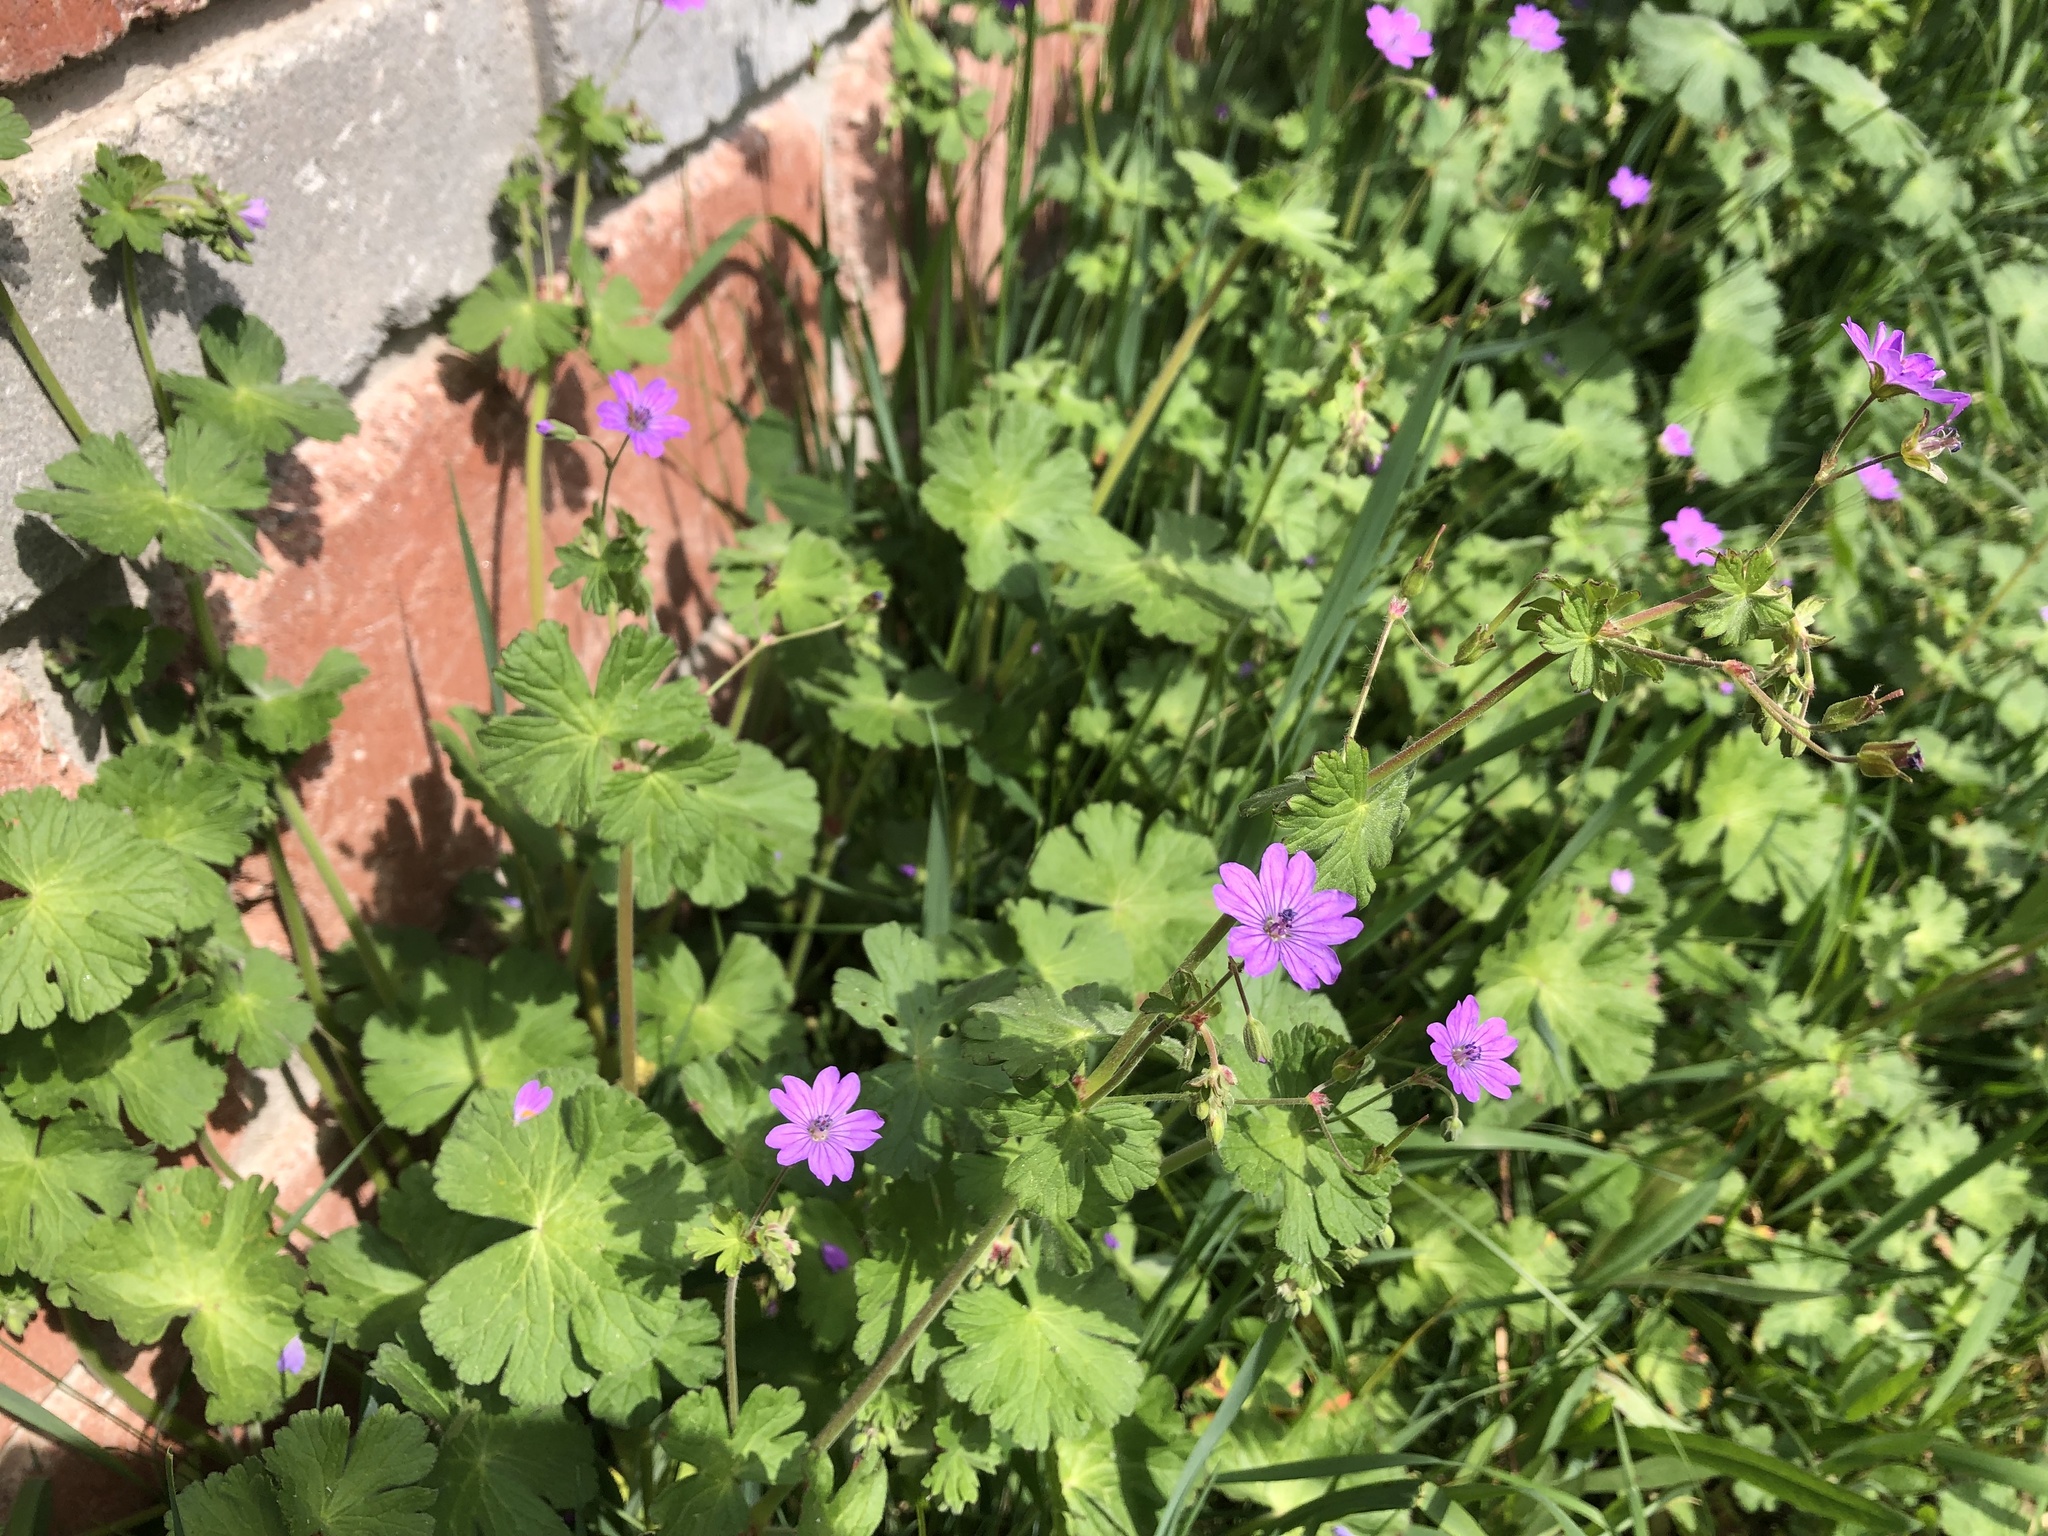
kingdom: Plantae
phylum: Tracheophyta
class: Magnoliopsida
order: Geraniales
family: Geraniaceae
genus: Geranium
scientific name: Geranium pyrenaicum
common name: Hedgerow crane's-bill
